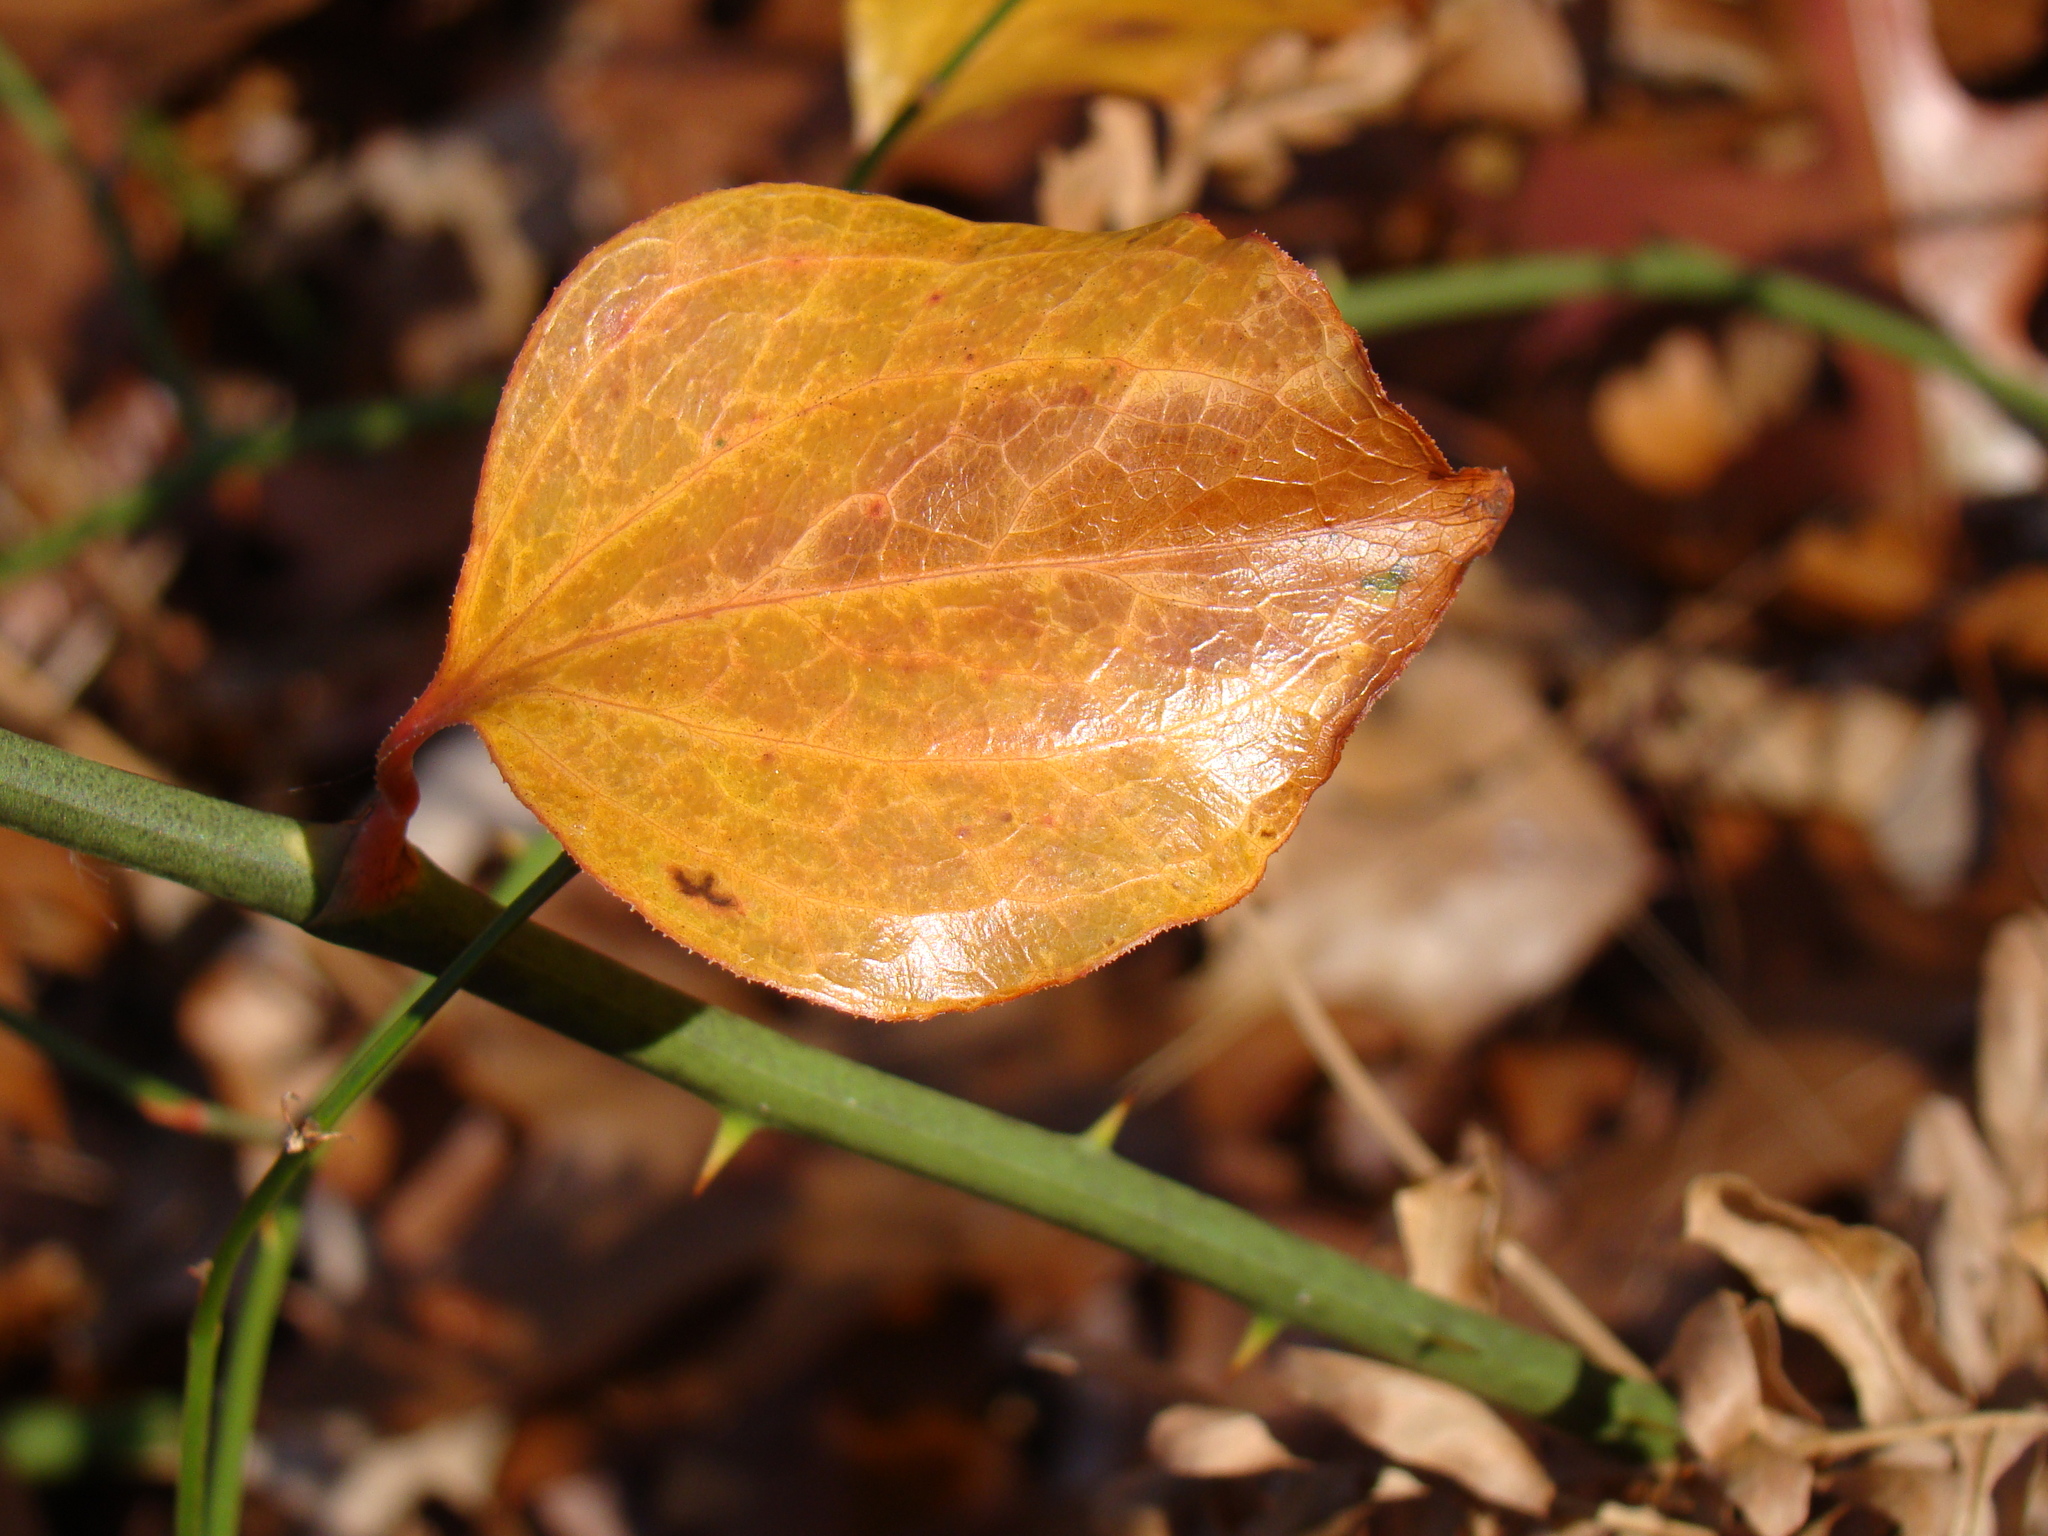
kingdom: Plantae
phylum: Tracheophyta
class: Liliopsida
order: Liliales
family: Smilacaceae
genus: Smilax
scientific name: Smilax rotundifolia
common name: Bullbriar
